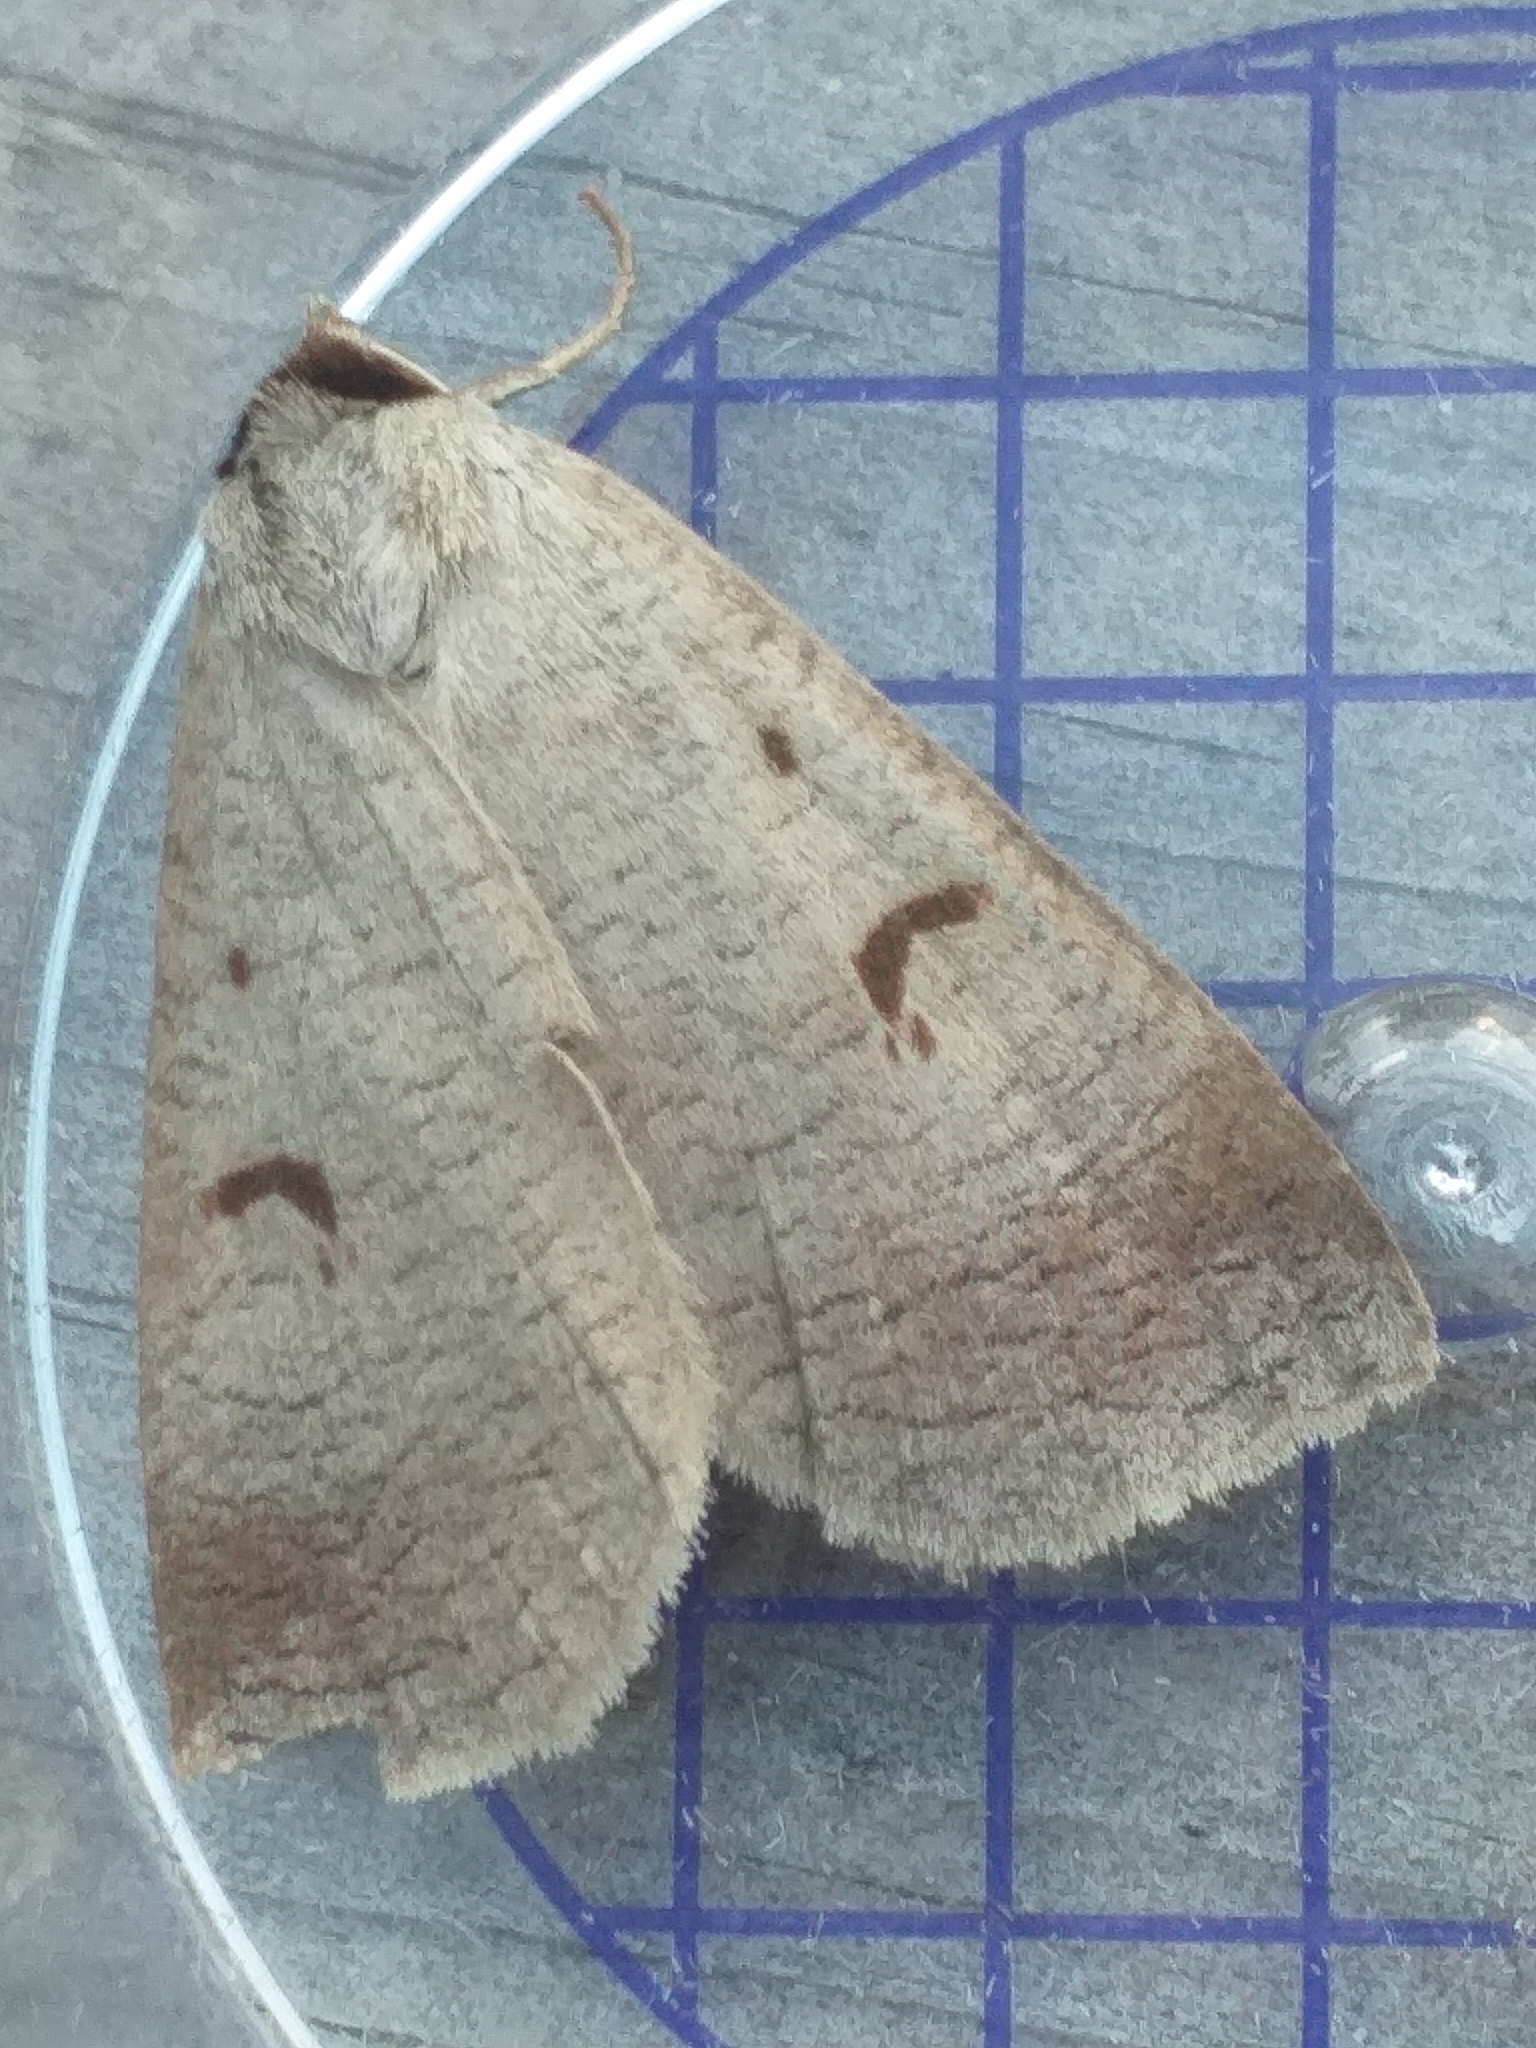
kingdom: Animalia
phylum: Arthropoda
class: Insecta
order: Lepidoptera
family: Erebidae
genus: Lygephila
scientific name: Lygephila pastinum
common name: Blackneck
